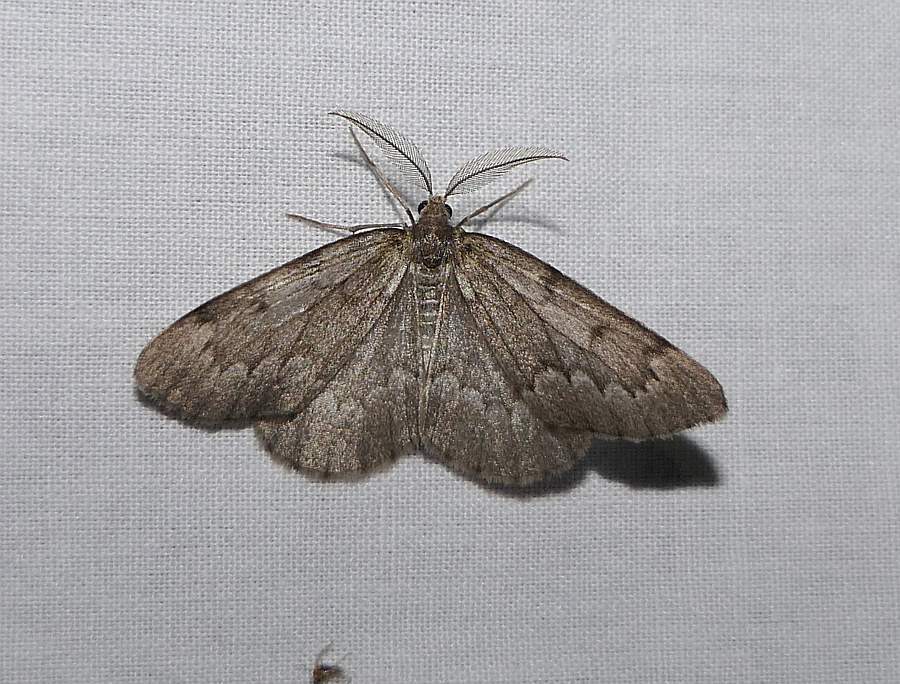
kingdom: Animalia
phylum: Arthropoda
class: Insecta
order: Lepidoptera
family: Geometridae
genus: Nepytia
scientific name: Nepytia pellucidaria
